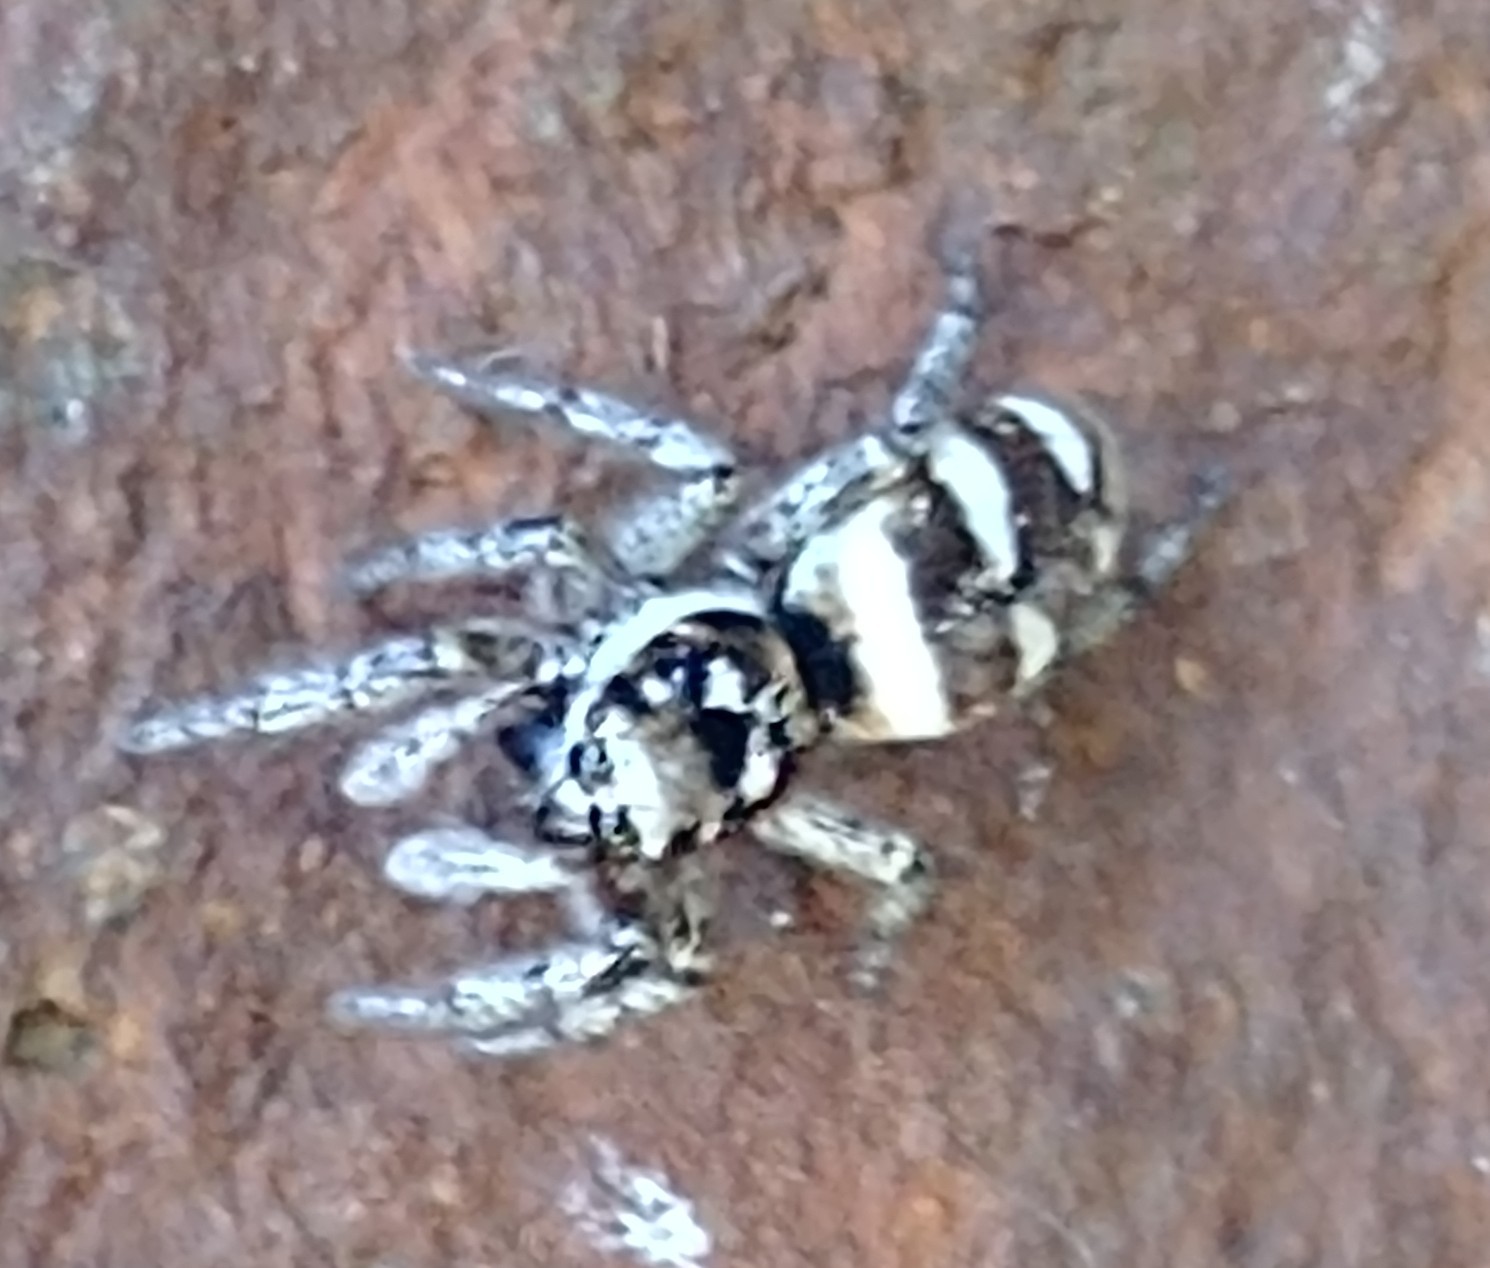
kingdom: Animalia
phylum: Arthropoda
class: Arachnida
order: Araneae
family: Salticidae
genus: Salticus
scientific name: Salticus scenicus
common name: Zebra jumper
